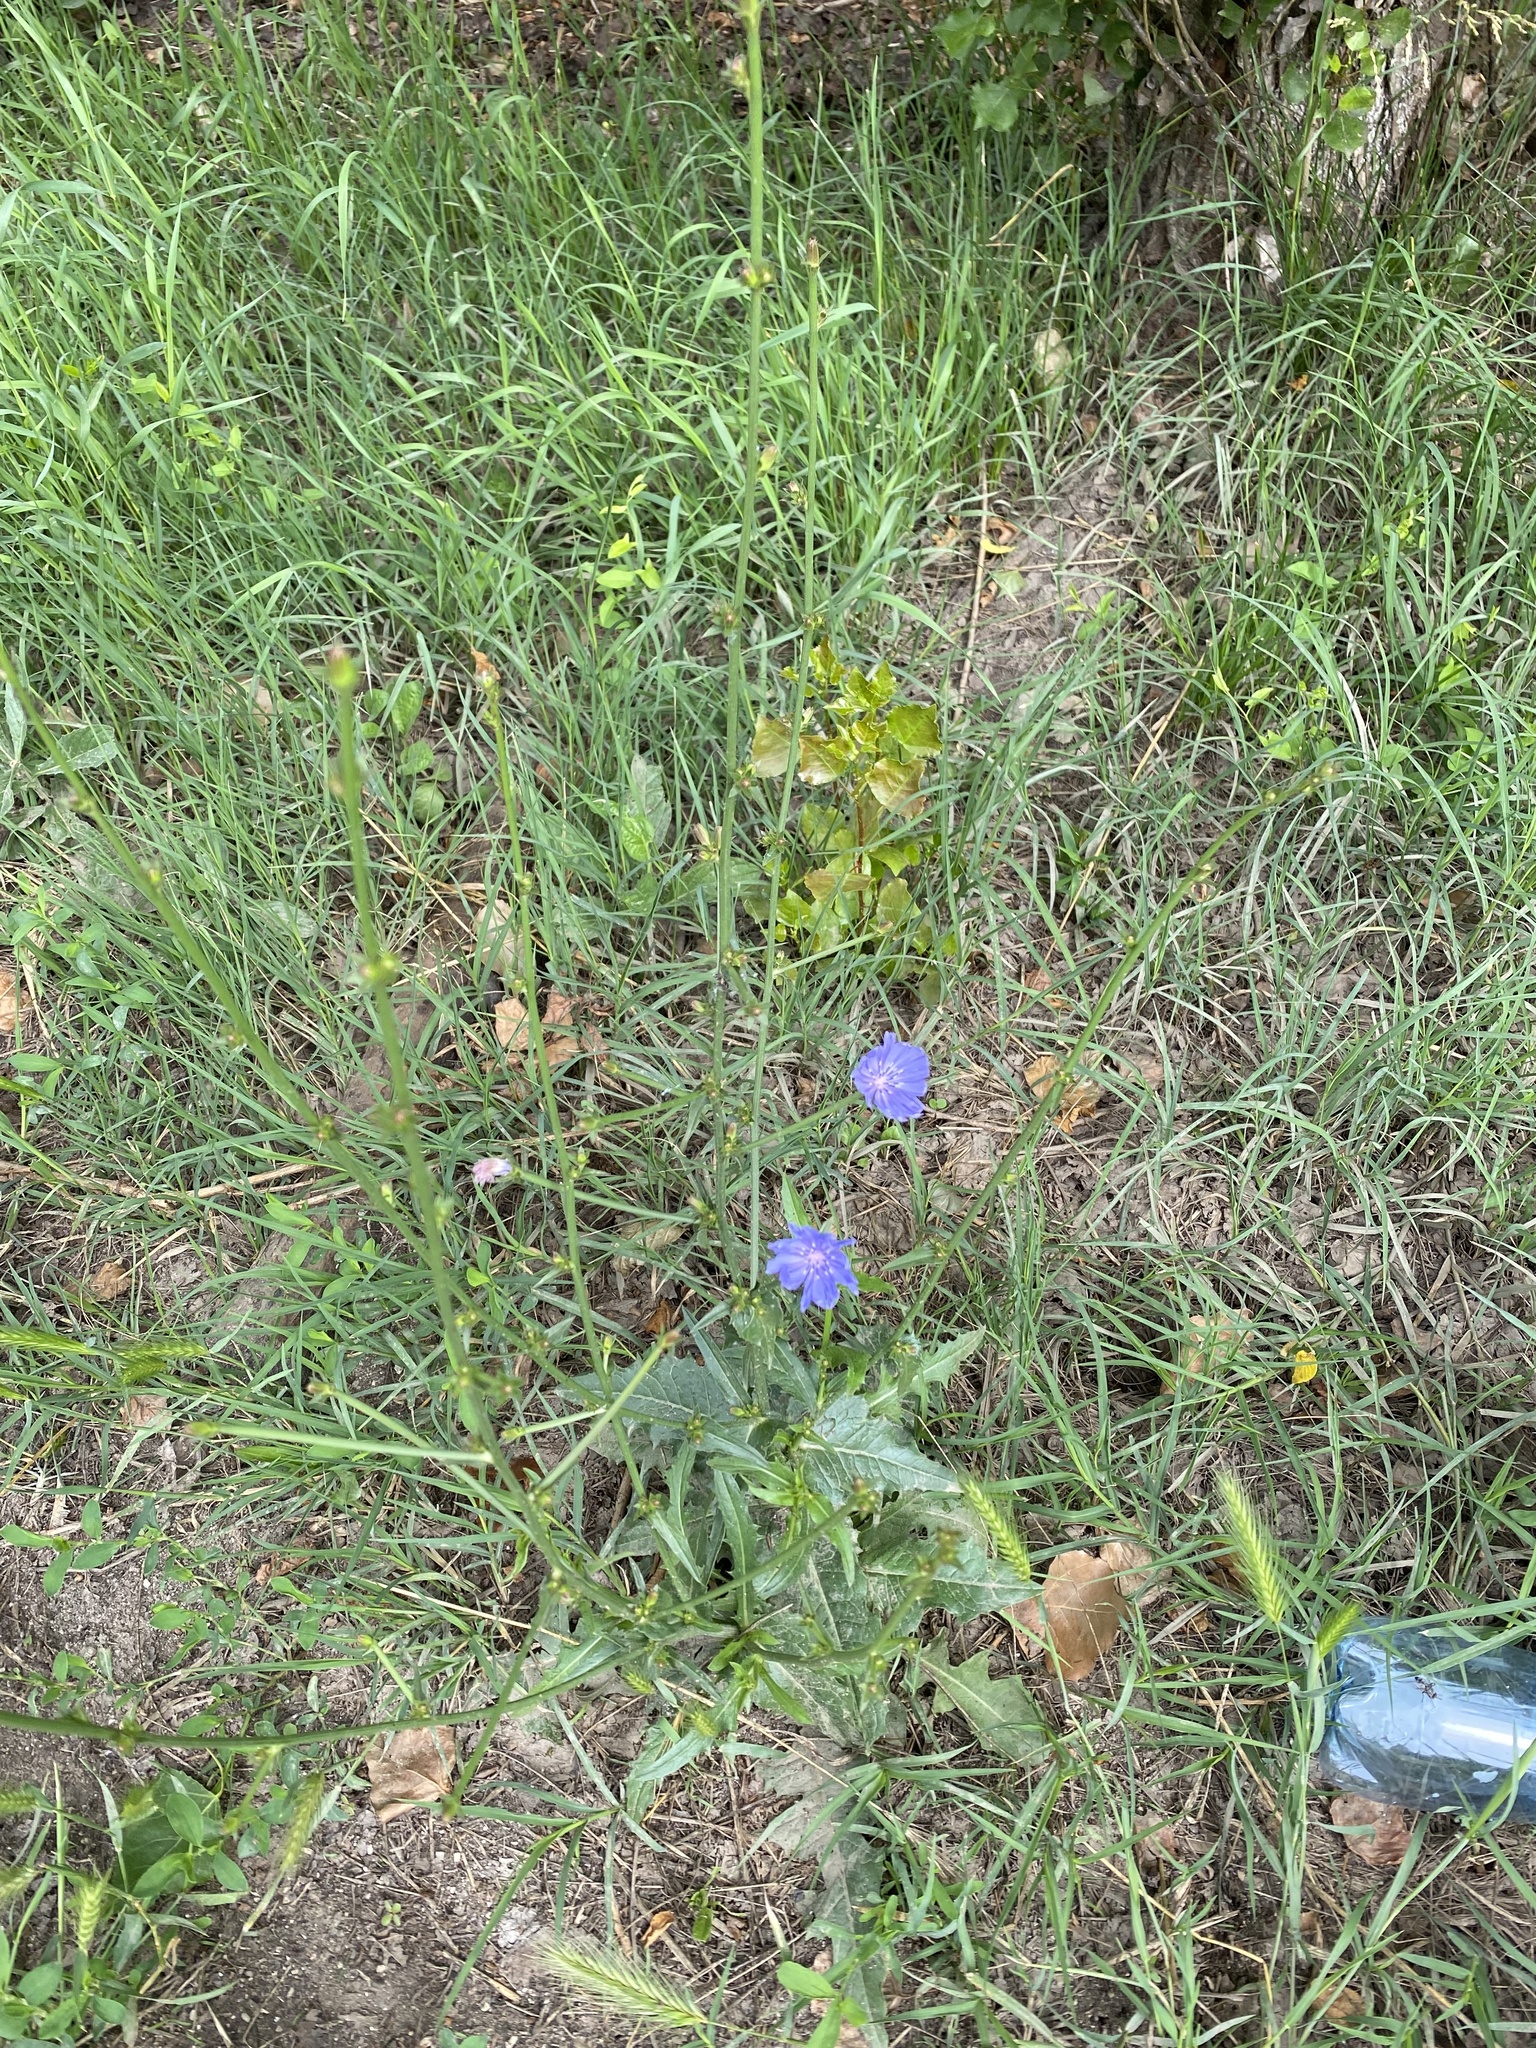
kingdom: Plantae
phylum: Tracheophyta
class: Magnoliopsida
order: Asterales
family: Asteraceae
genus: Cichorium
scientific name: Cichorium intybus
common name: Chicory
